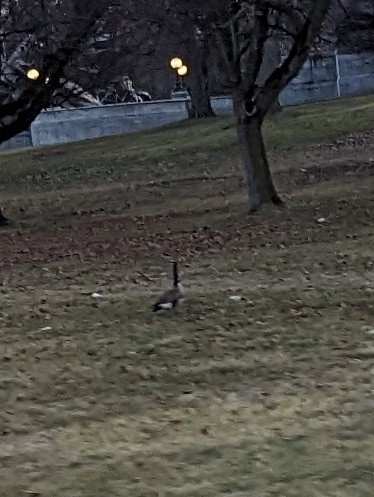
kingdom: Animalia
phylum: Chordata
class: Aves
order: Anseriformes
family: Anatidae
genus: Branta
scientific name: Branta canadensis
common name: Canada goose
